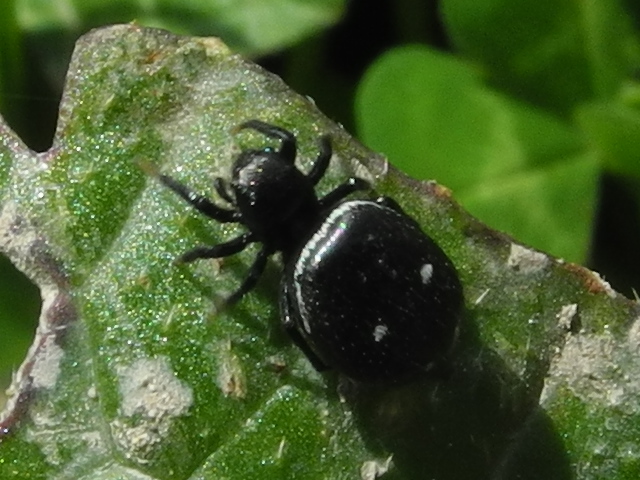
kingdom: Animalia
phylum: Arthropoda
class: Arachnida
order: Araneae
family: Salticidae
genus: Heliophanus
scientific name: Heliophanus kochii
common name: Sun jumping spider
